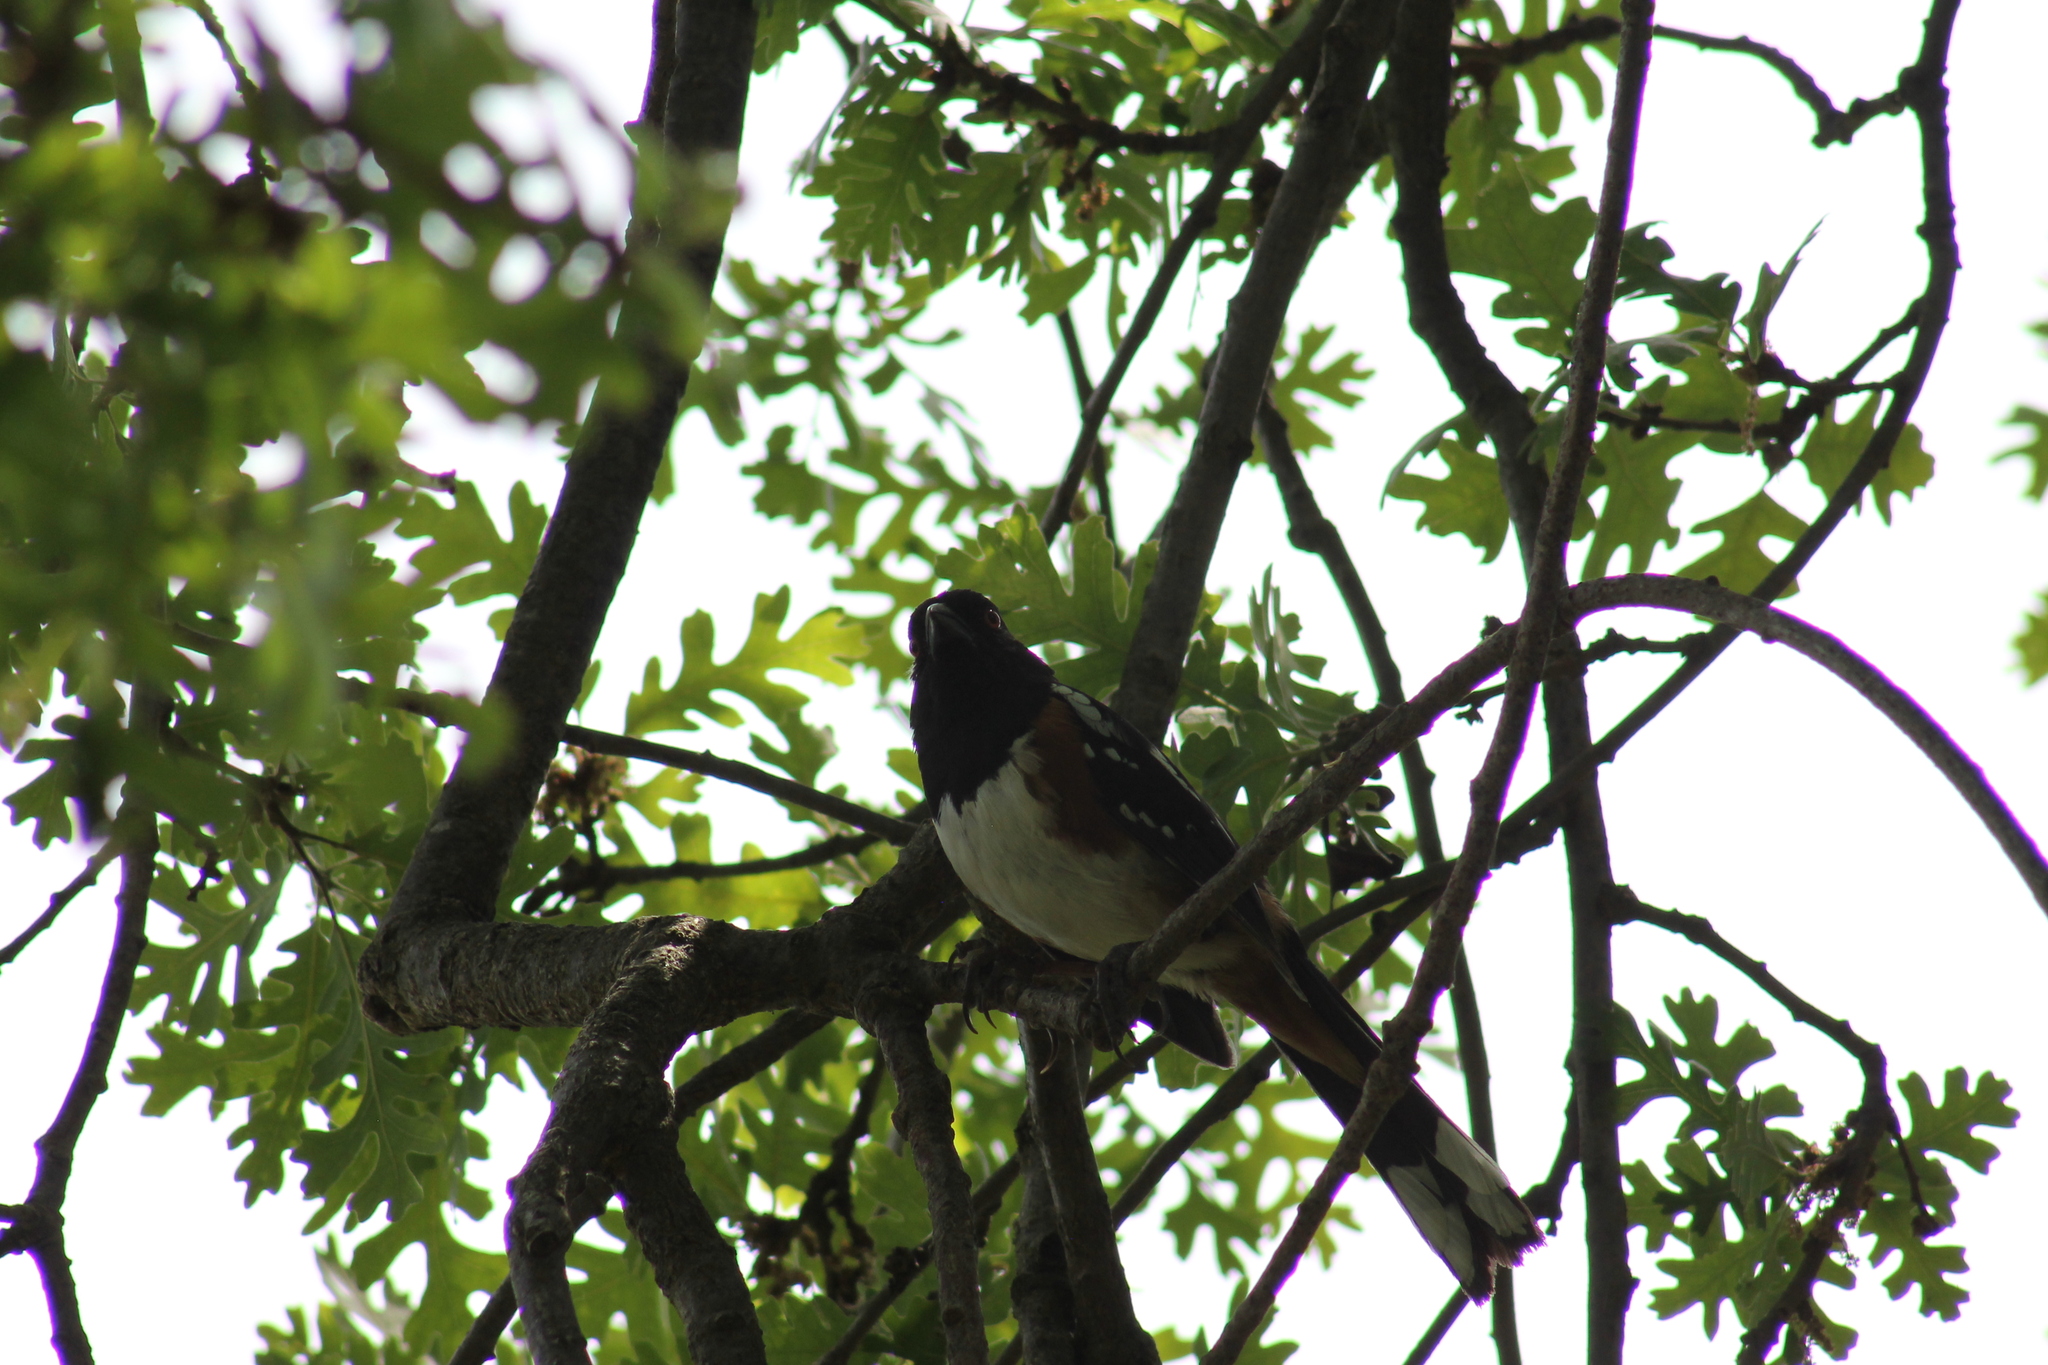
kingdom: Animalia
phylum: Chordata
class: Aves
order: Passeriformes
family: Passerellidae
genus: Pipilo
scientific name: Pipilo maculatus
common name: Spotted towhee
